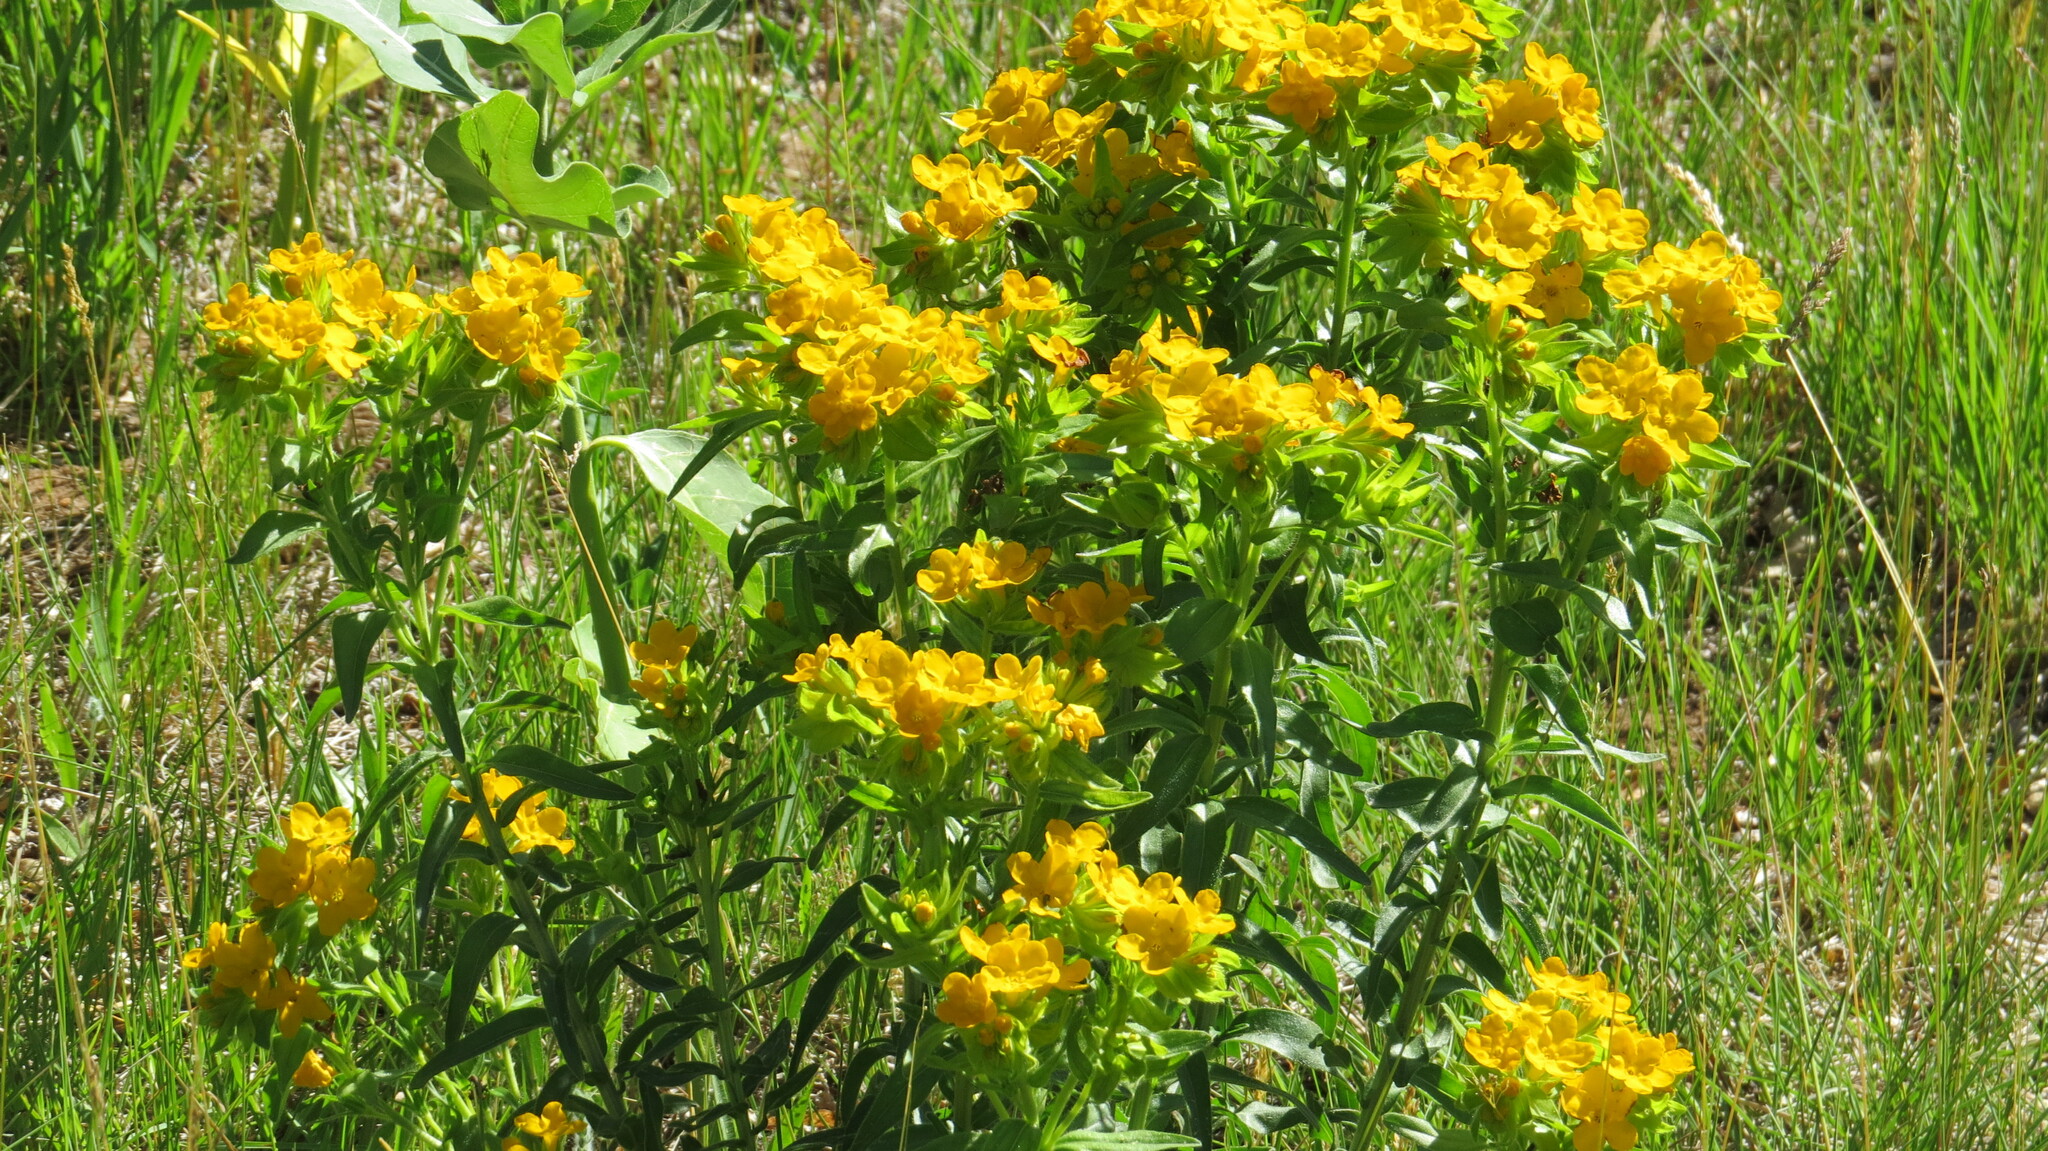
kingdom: Plantae
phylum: Tracheophyta
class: Magnoliopsida
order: Boraginales
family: Boraginaceae
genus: Lithospermum
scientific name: Lithospermum caroliniense
